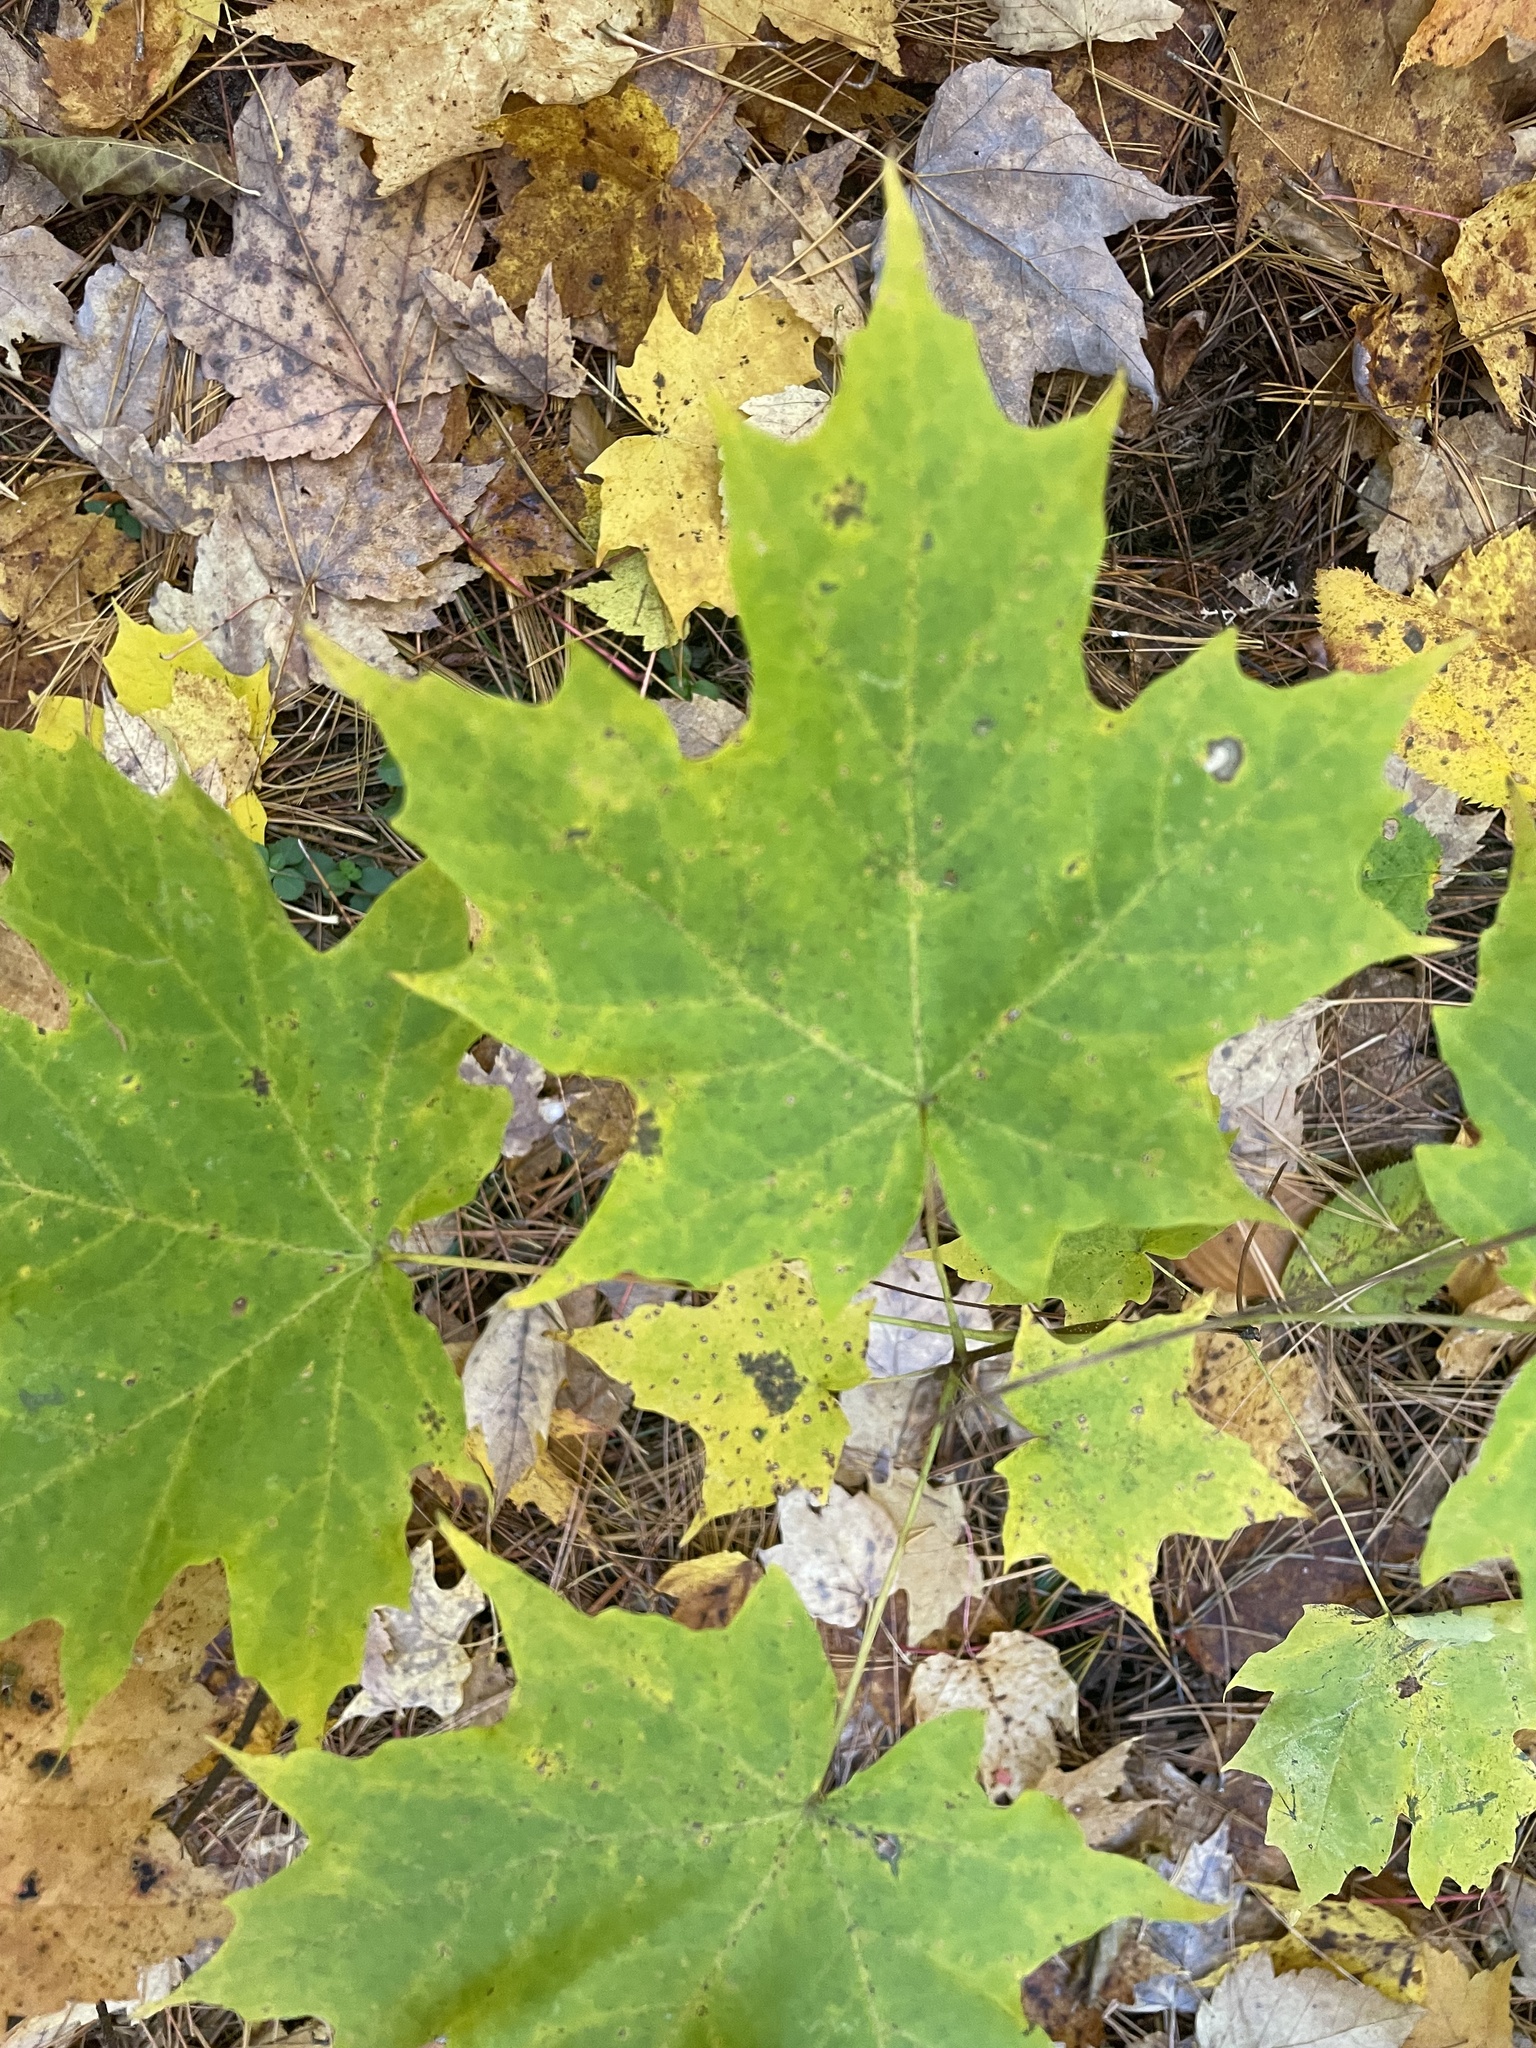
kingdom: Plantae
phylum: Tracheophyta
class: Magnoliopsida
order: Sapindales
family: Sapindaceae
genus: Acer
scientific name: Acer saccharum
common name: Sugar maple
